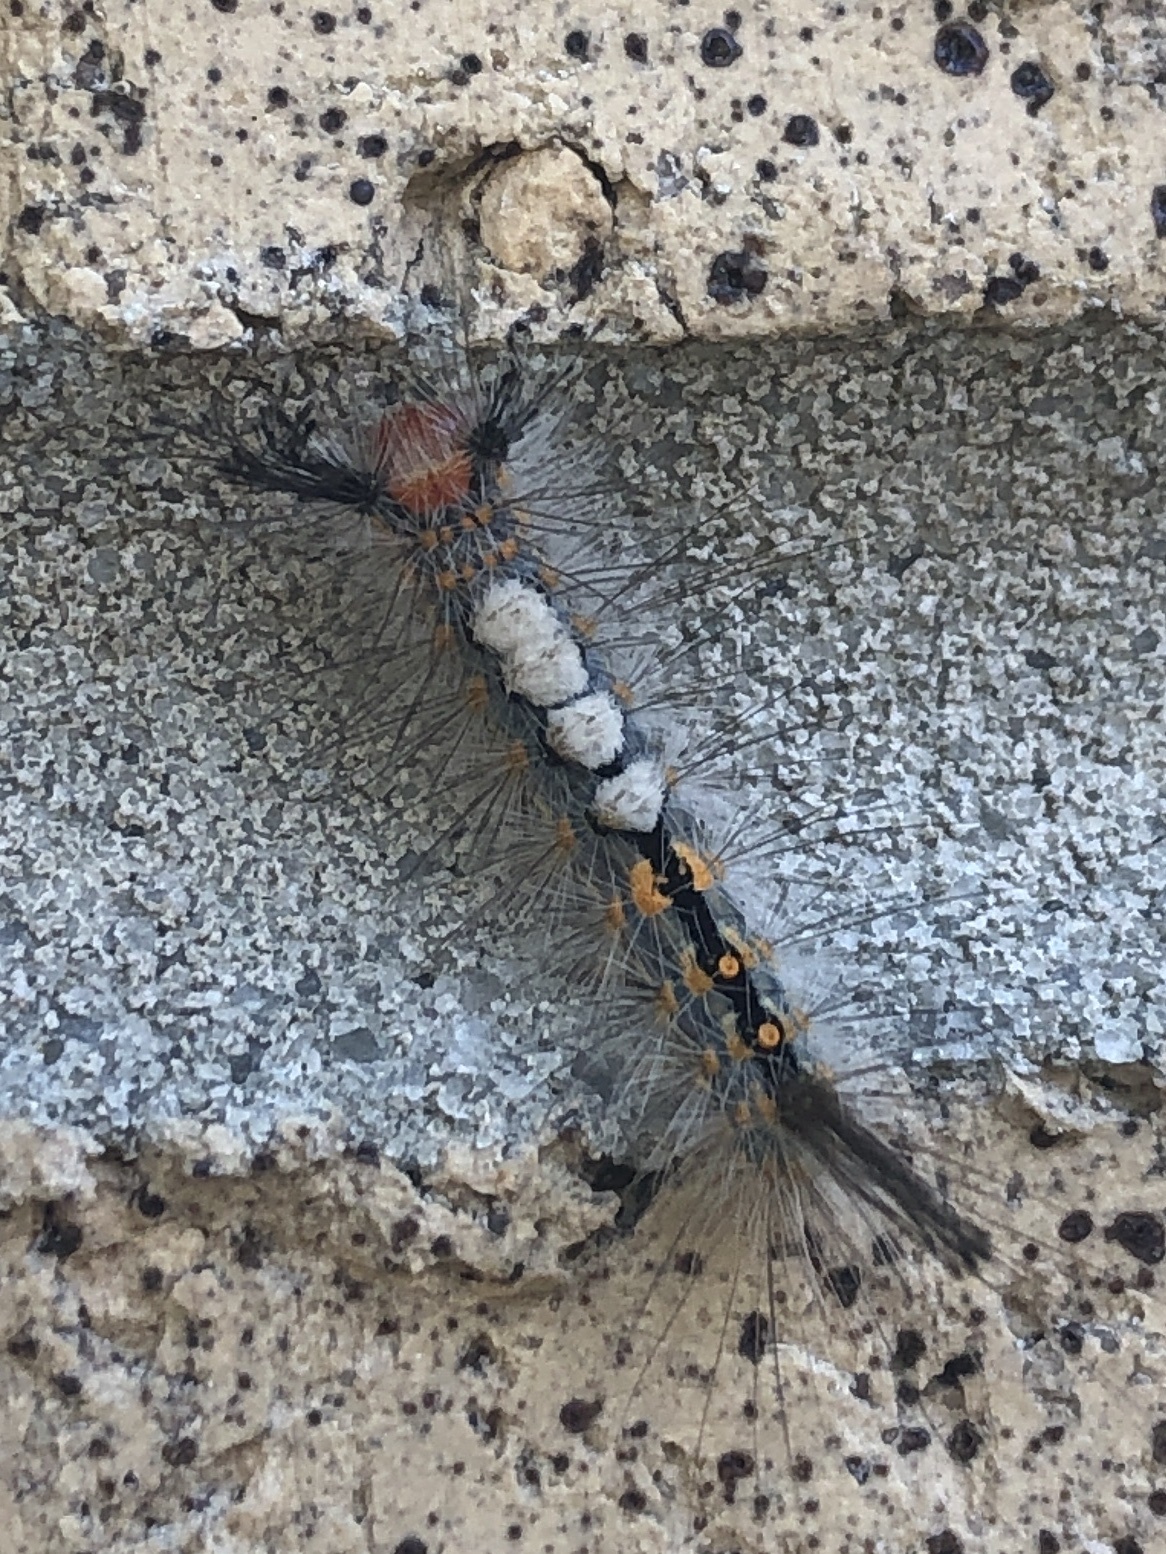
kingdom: Animalia
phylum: Arthropoda
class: Insecta
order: Lepidoptera
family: Erebidae
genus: Orgyia
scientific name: Orgyia detrita
